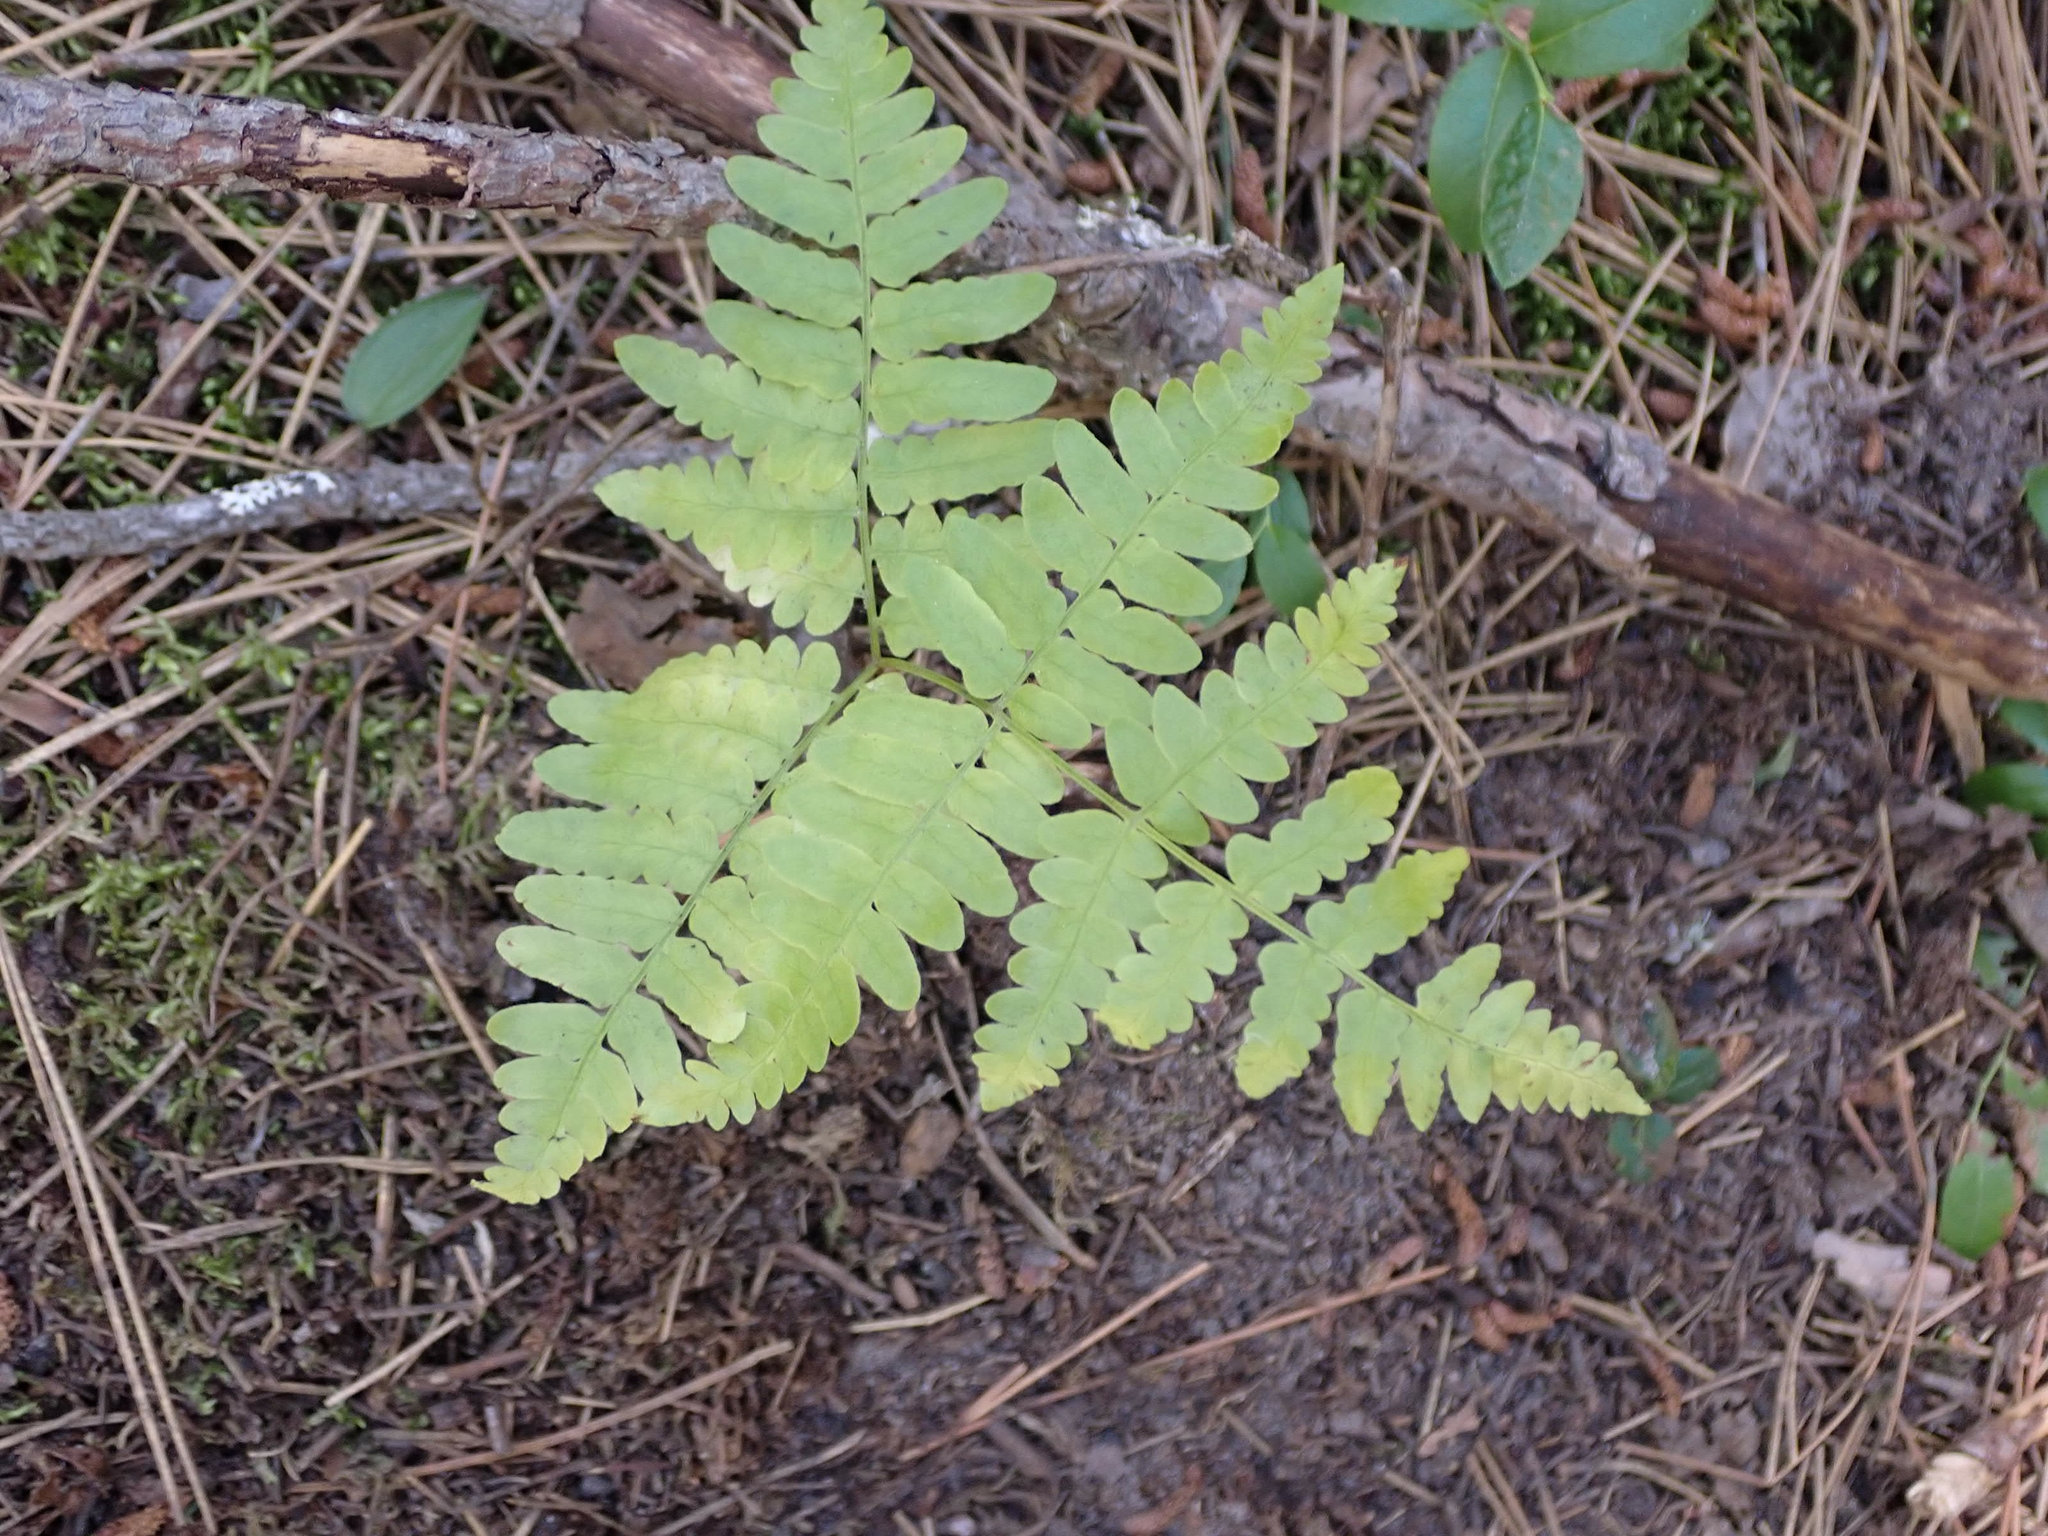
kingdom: Plantae
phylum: Tracheophyta
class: Polypodiopsida
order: Polypodiales
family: Cystopteridaceae
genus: Gymnocarpium
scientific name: Gymnocarpium dryopteris
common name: Oak fern
